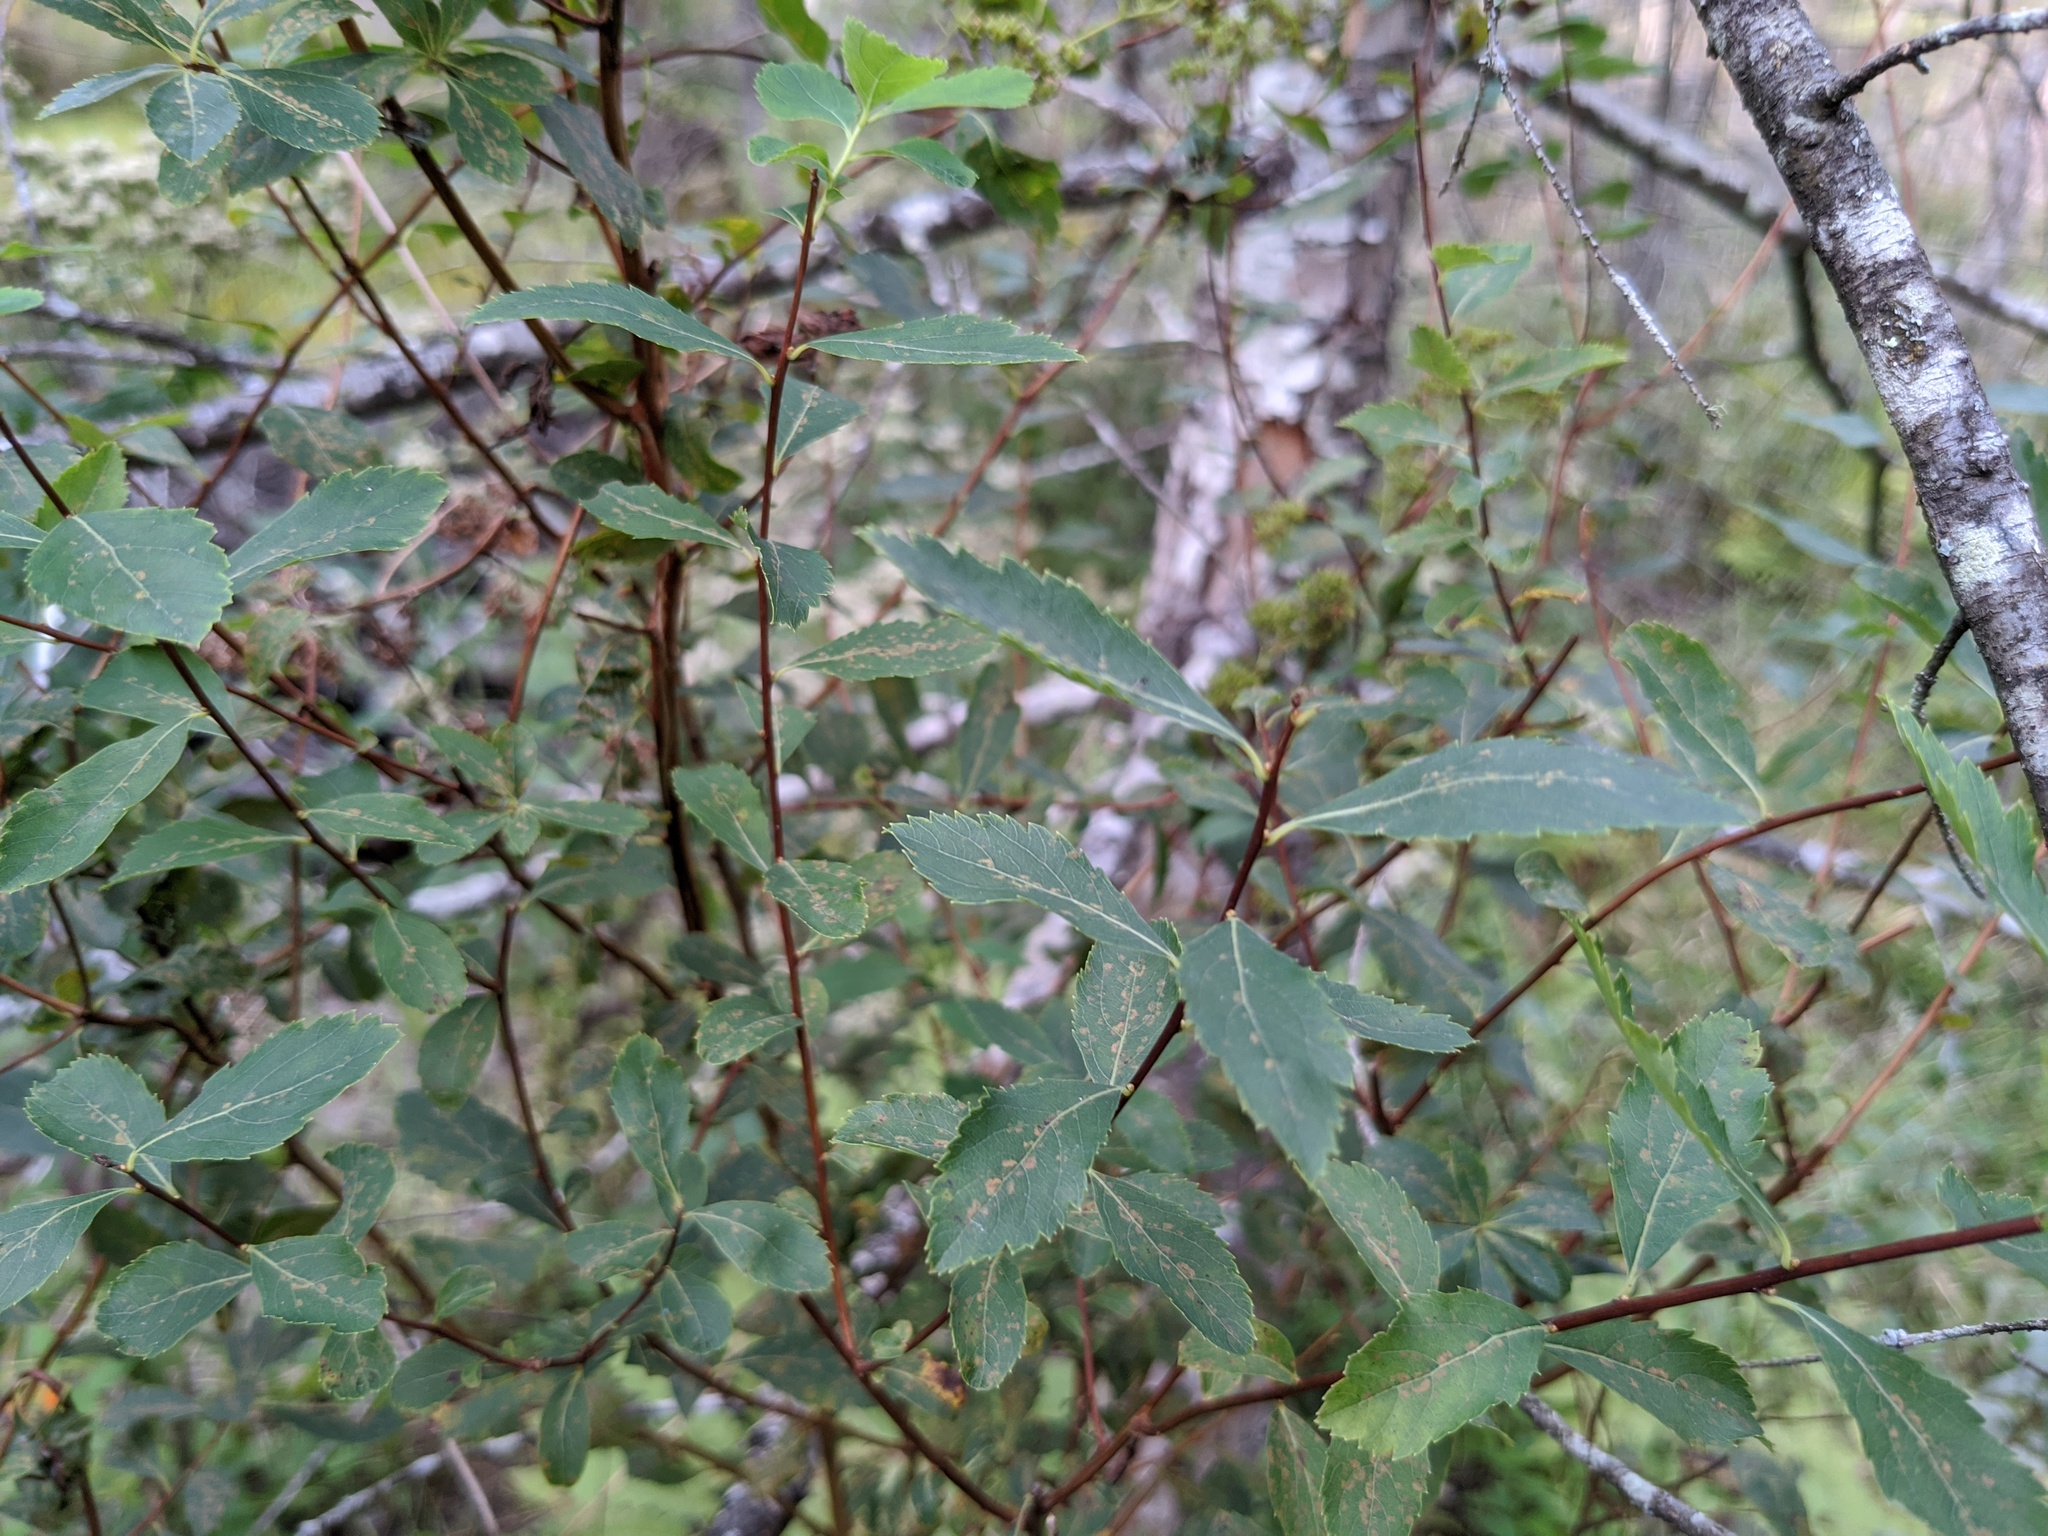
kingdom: Plantae
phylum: Tracheophyta
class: Magnoliopsida
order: Rosales
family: Rosaceae
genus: Spiraea
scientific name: Spiraea alba
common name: Pale bridewort
